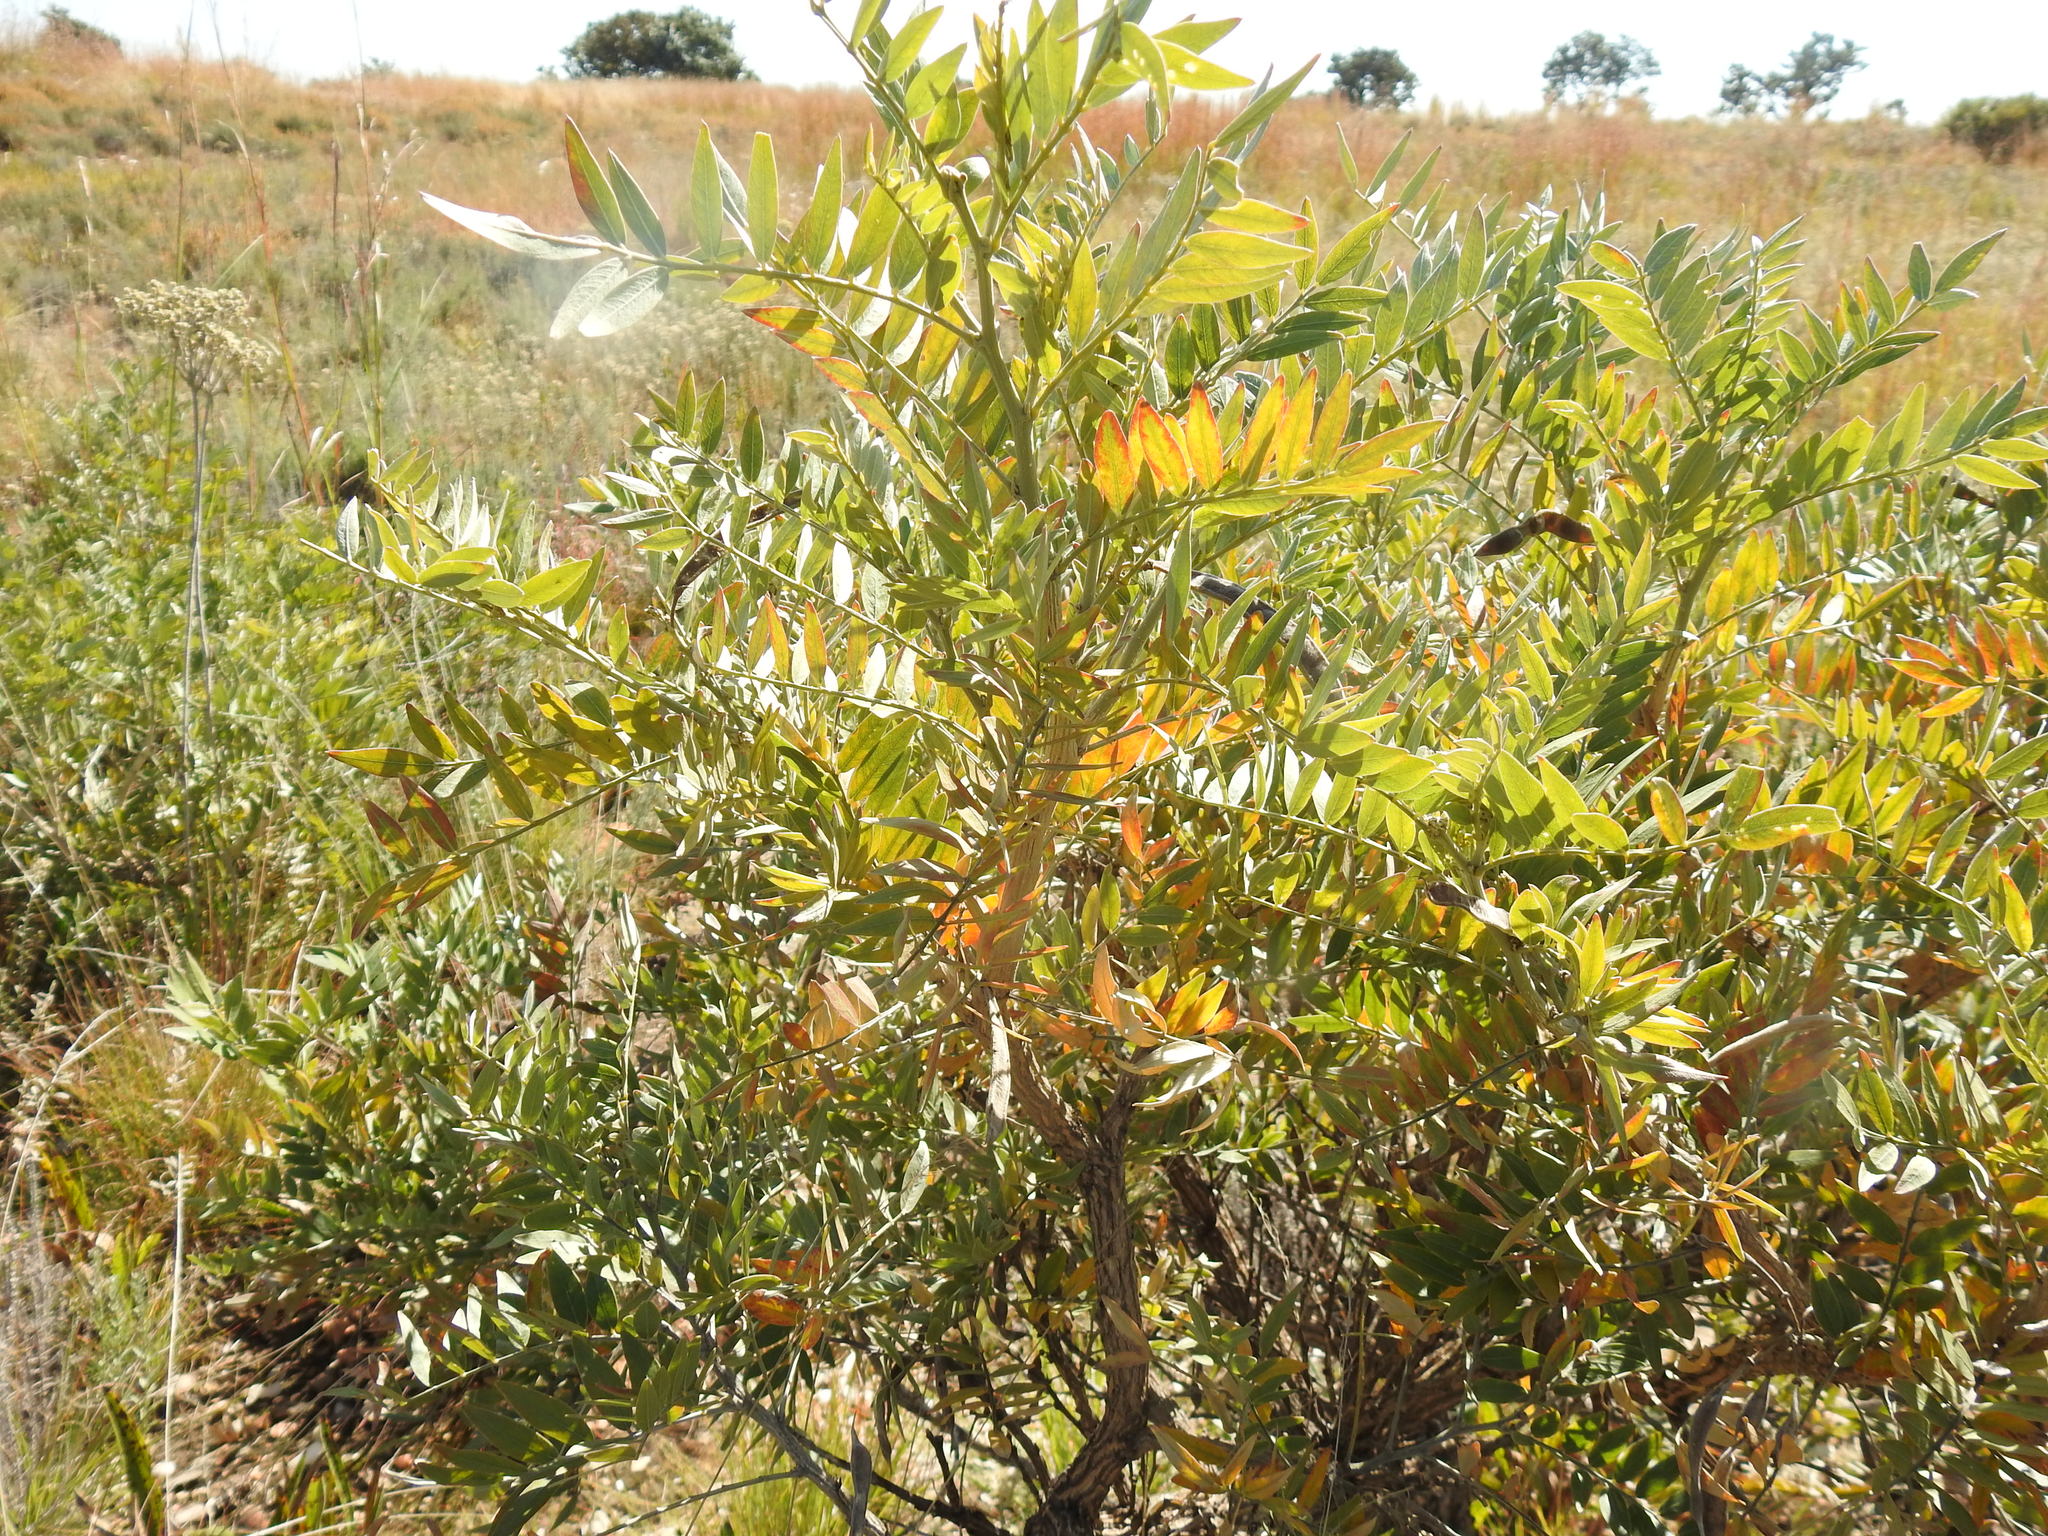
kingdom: Plantae
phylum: Tracheophyta
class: Magnoliopsida
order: Fabales
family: Fabaceae
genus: Mundulea
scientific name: Mundulea sericea
